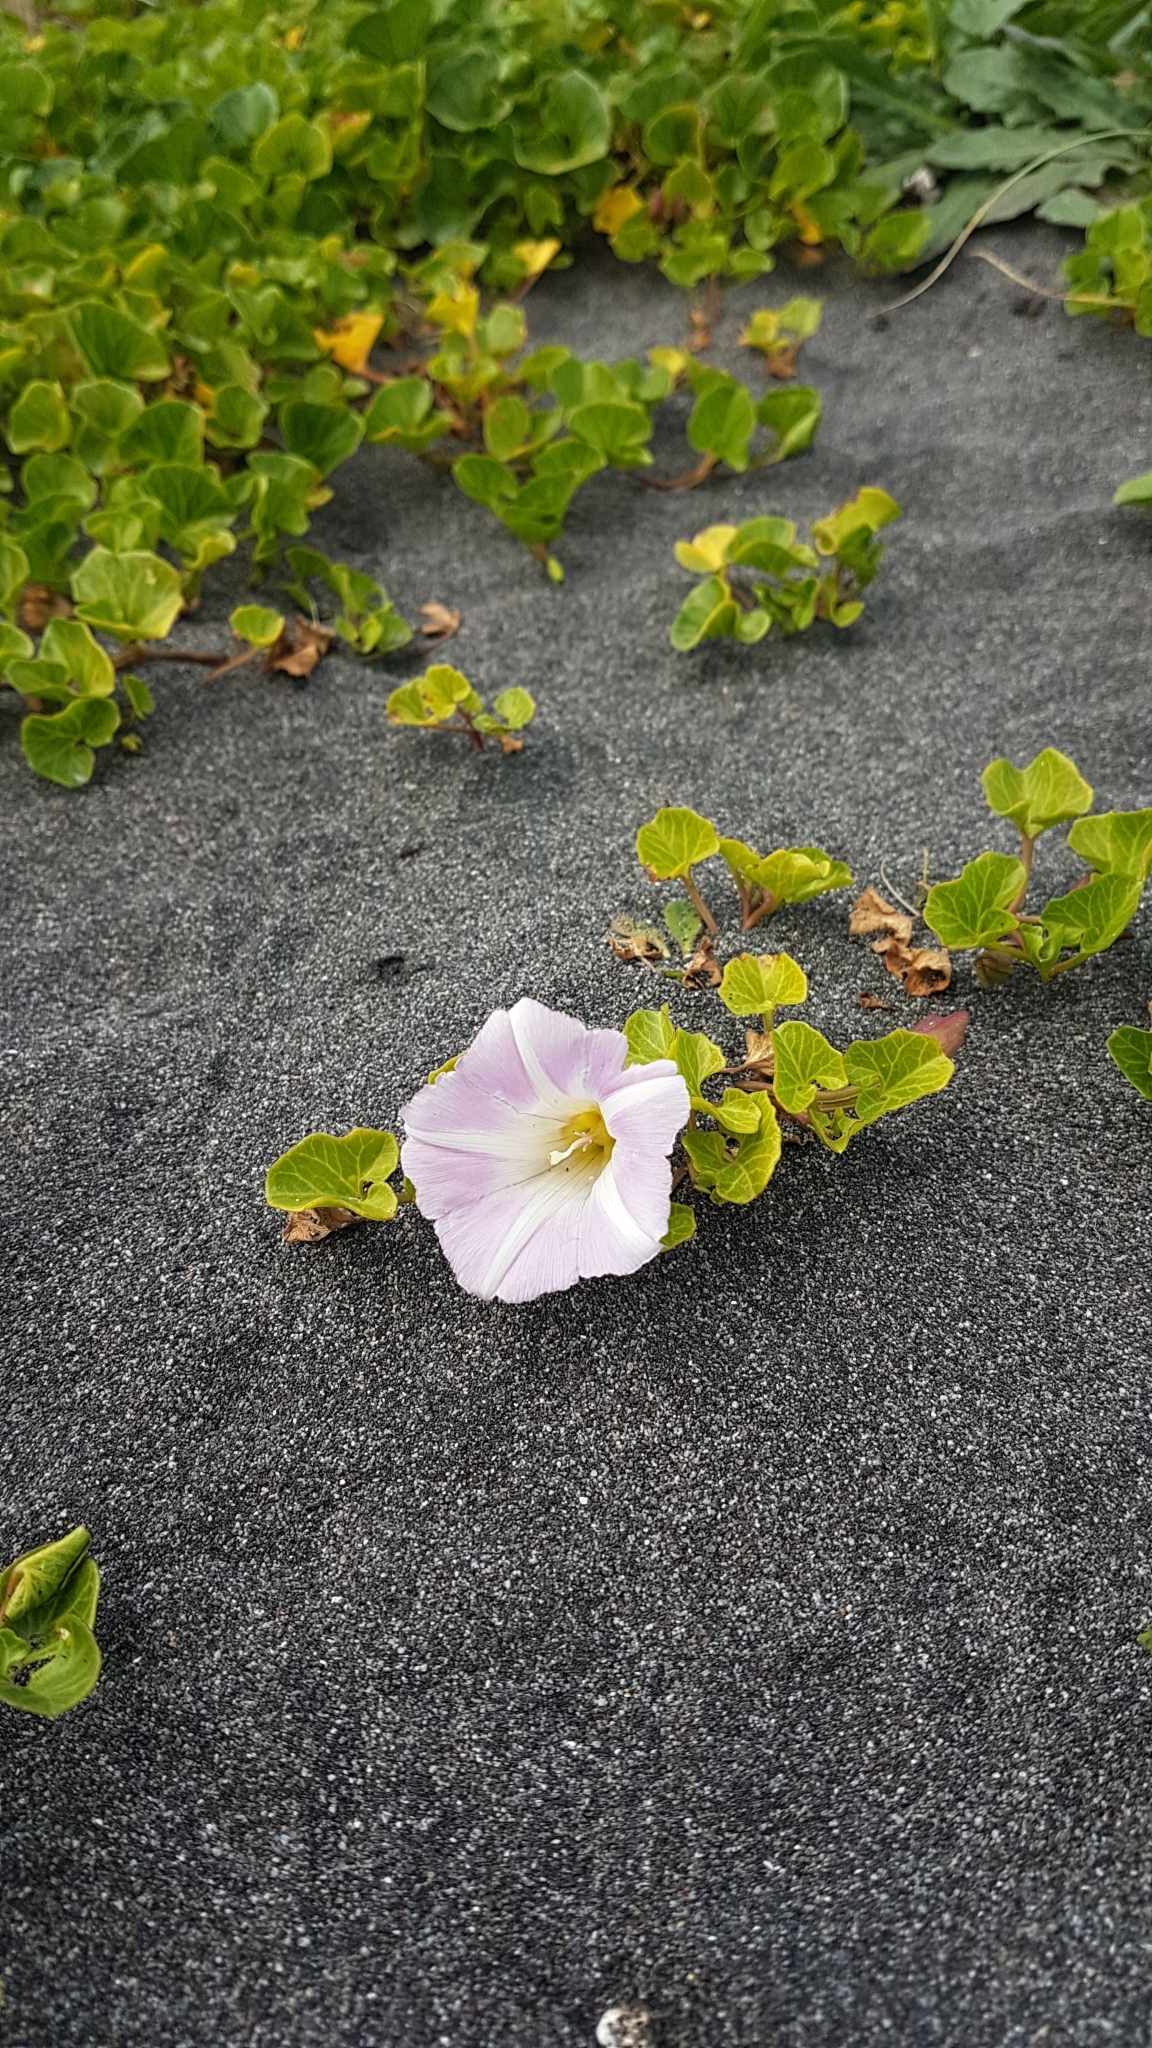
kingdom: Plantae
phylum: Tracheophyta
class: Magnoliopsida
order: Solanales
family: Convolvulaceae
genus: Calystegia
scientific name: Calystegia soldanella
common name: Sea bindweed
